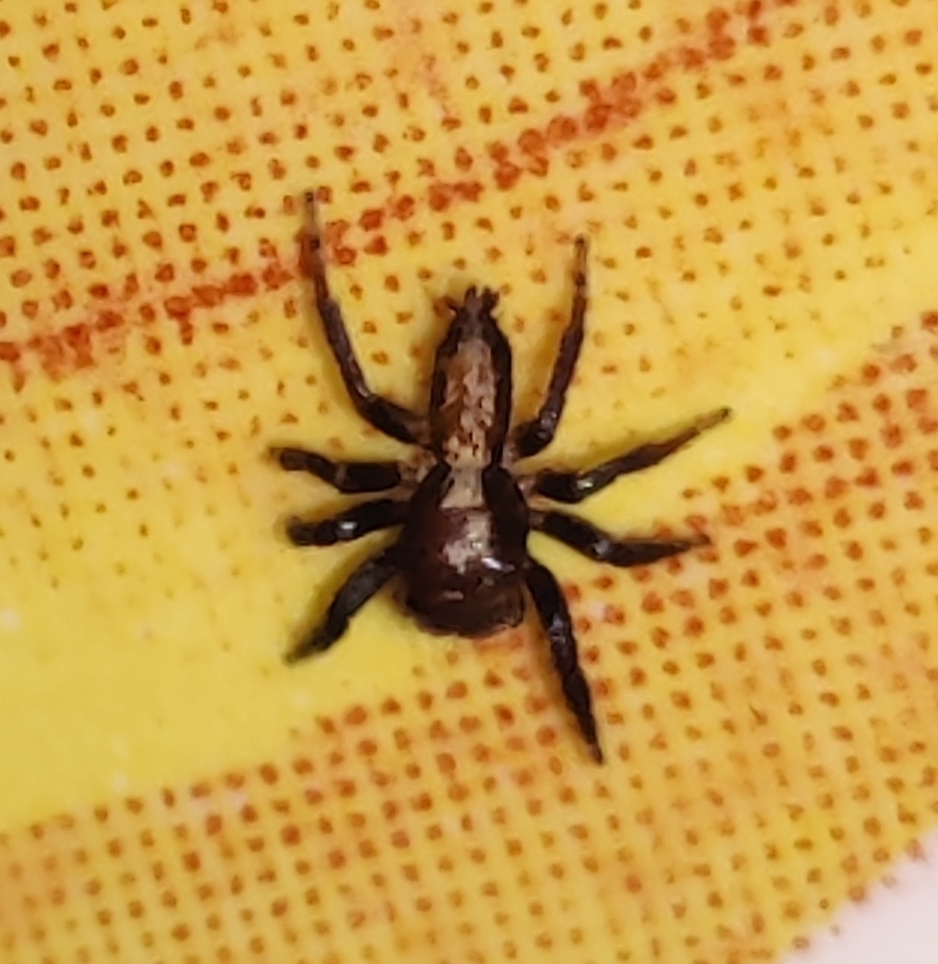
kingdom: Animalia
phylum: Arthropoda
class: Arachnida
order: Araneae
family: Salticidae
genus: Brancus
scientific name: Brancus calebi
